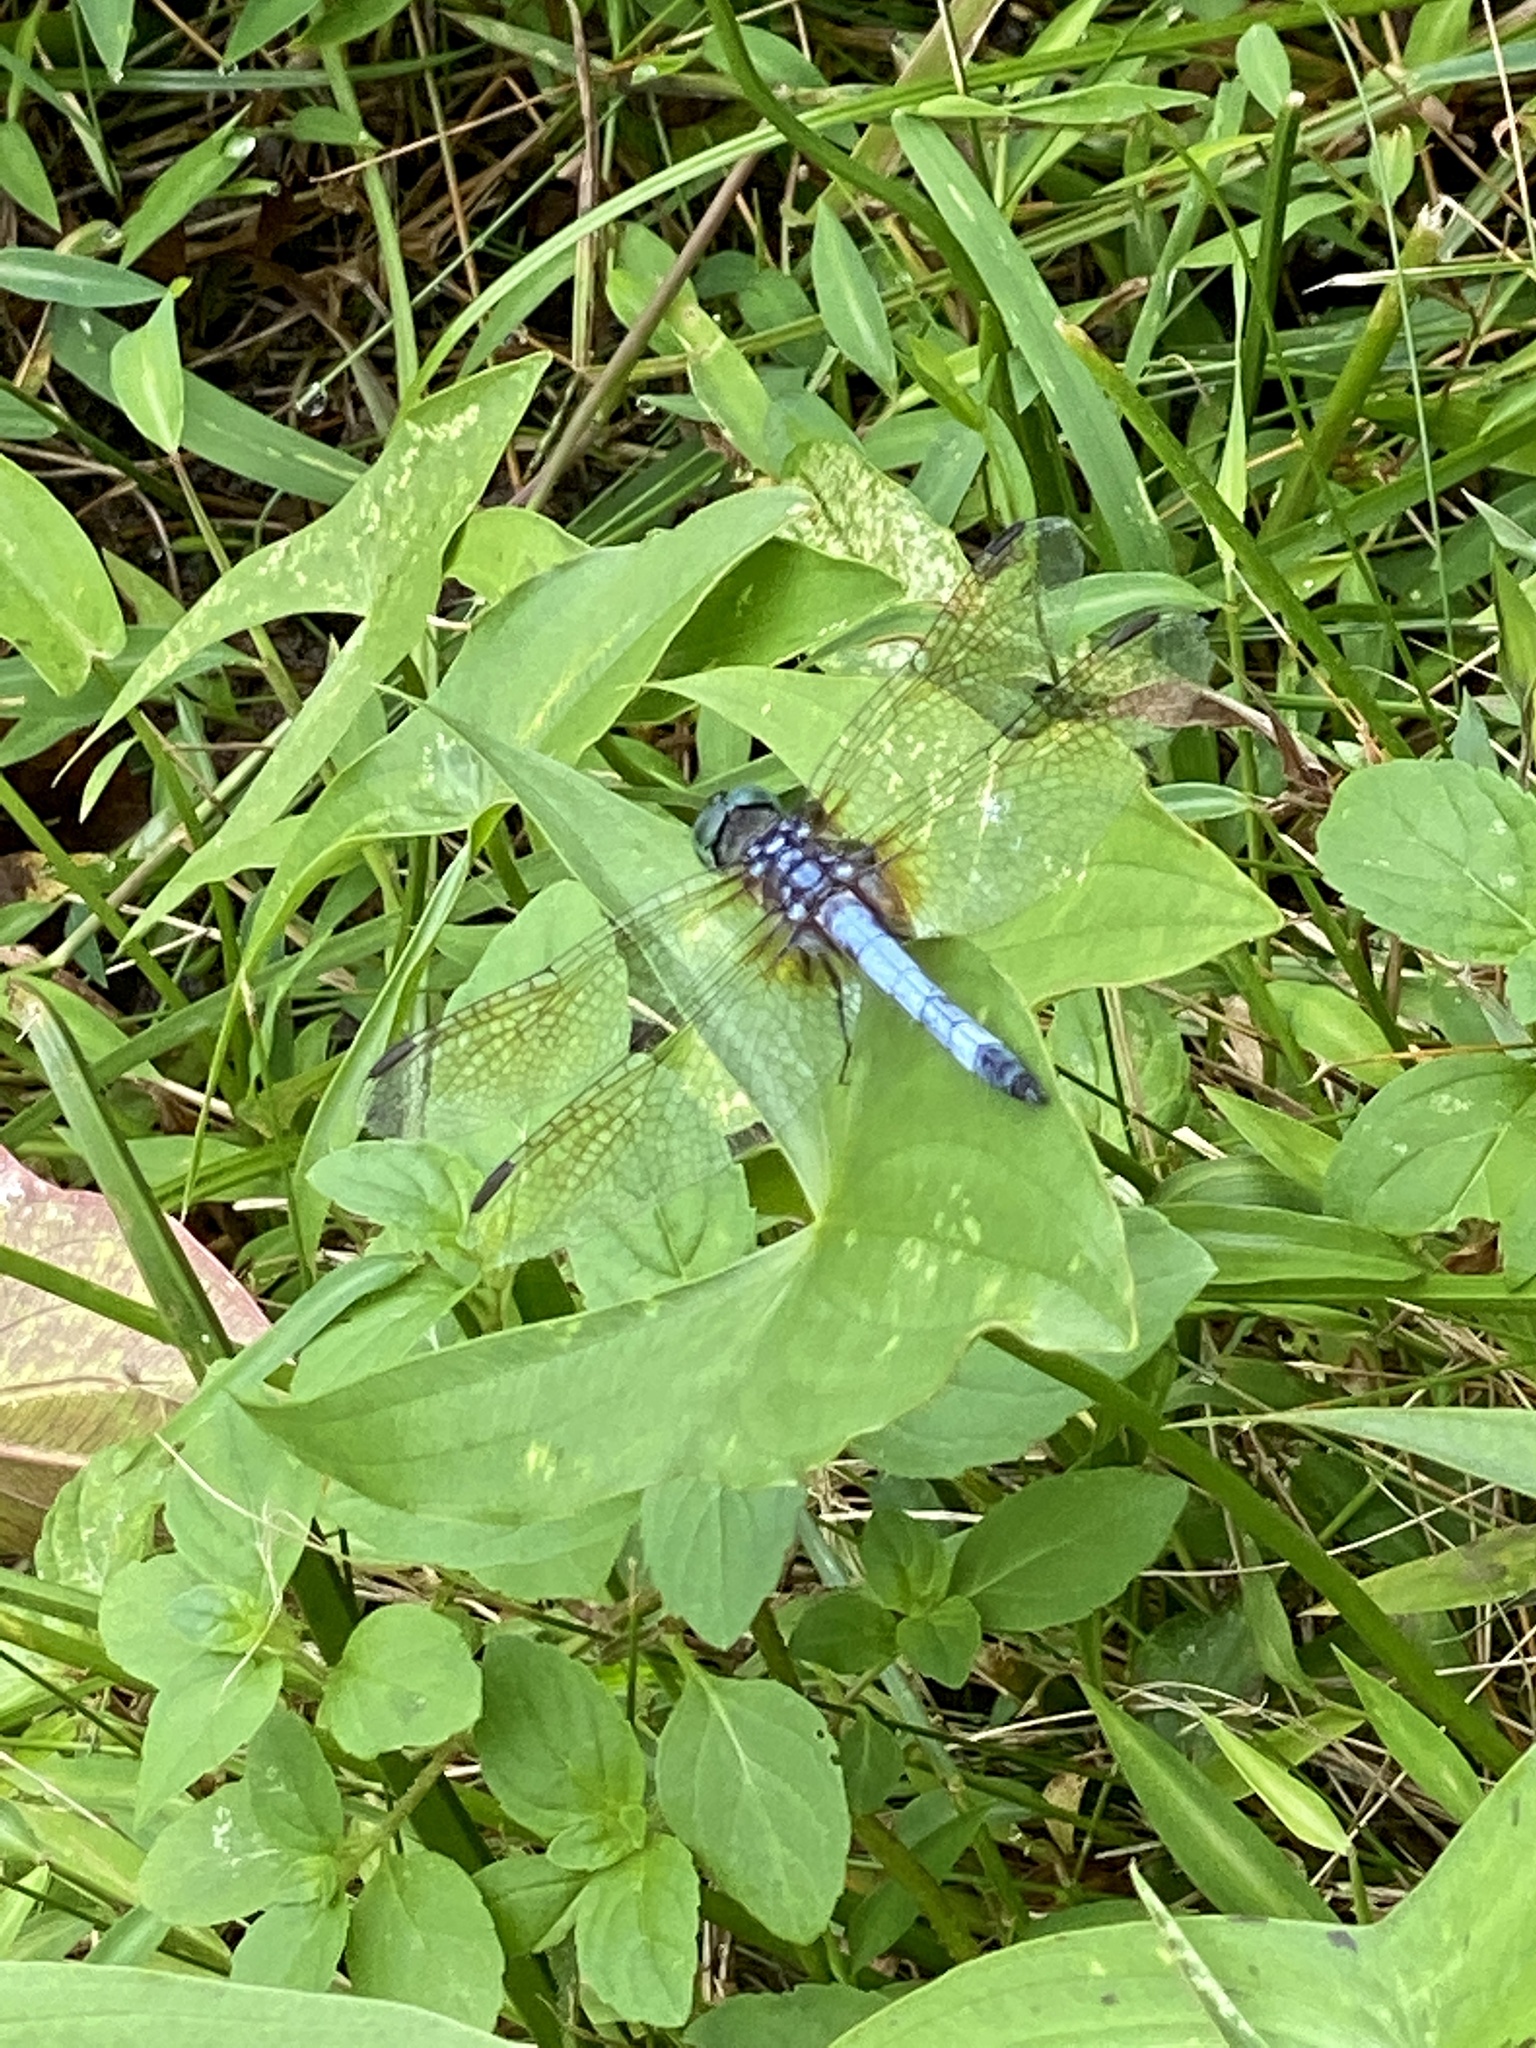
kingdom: Animalia
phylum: Arthropoda
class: Insecta
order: Odonata
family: Libellulidae
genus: Pachydiplax
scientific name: Pachydiplax longipennis
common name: Blue dasher
